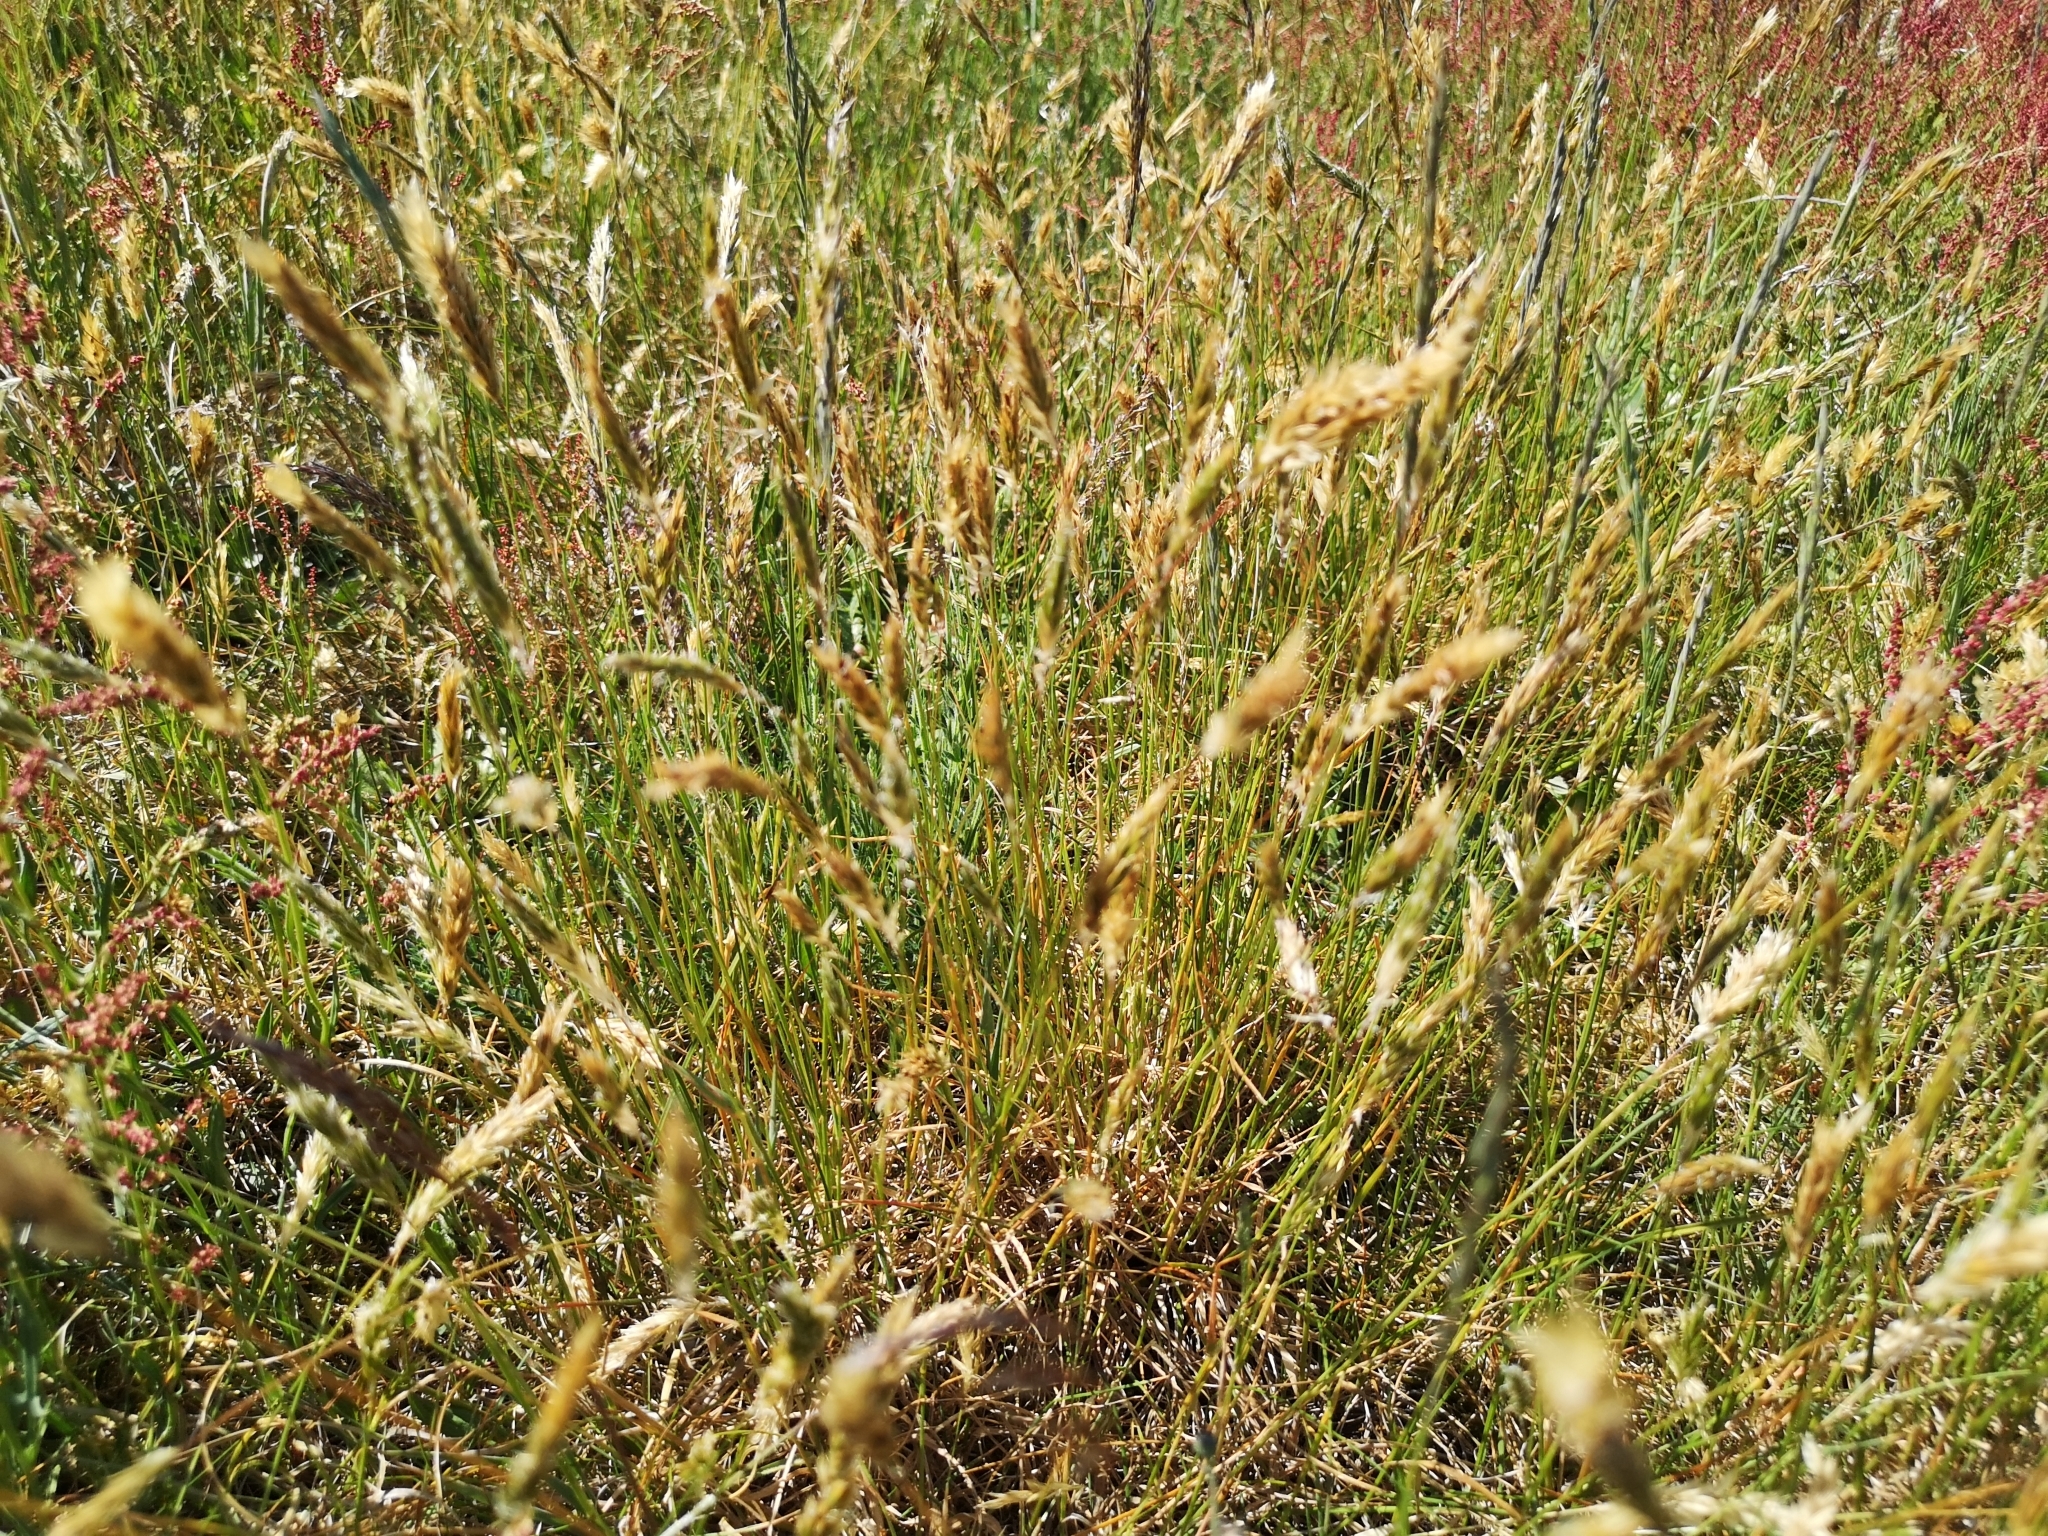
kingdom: Plantae
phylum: Tracheophyta
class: Liliopsida
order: Poales
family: Poaceae
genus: Anthoxanthum
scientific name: Anthoxanthum odoratum
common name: Sweet vernalgrass
